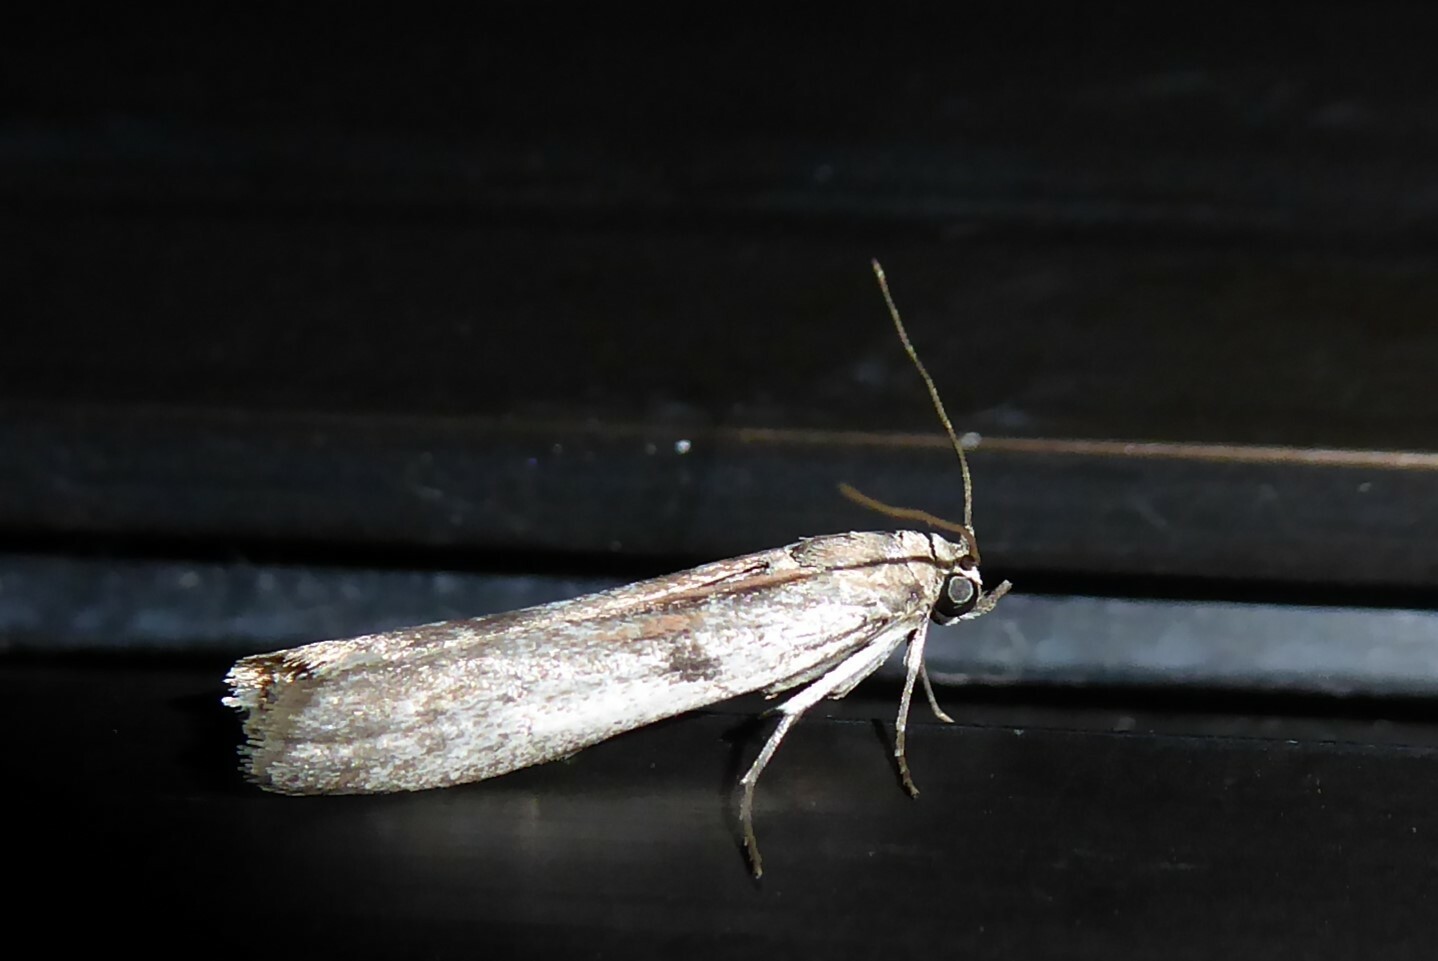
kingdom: Animalia
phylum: Arthropoda
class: Insecta
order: Lepidoptera
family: Pyralidae
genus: Patagoniodes
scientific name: Patagoniodes farinaria
